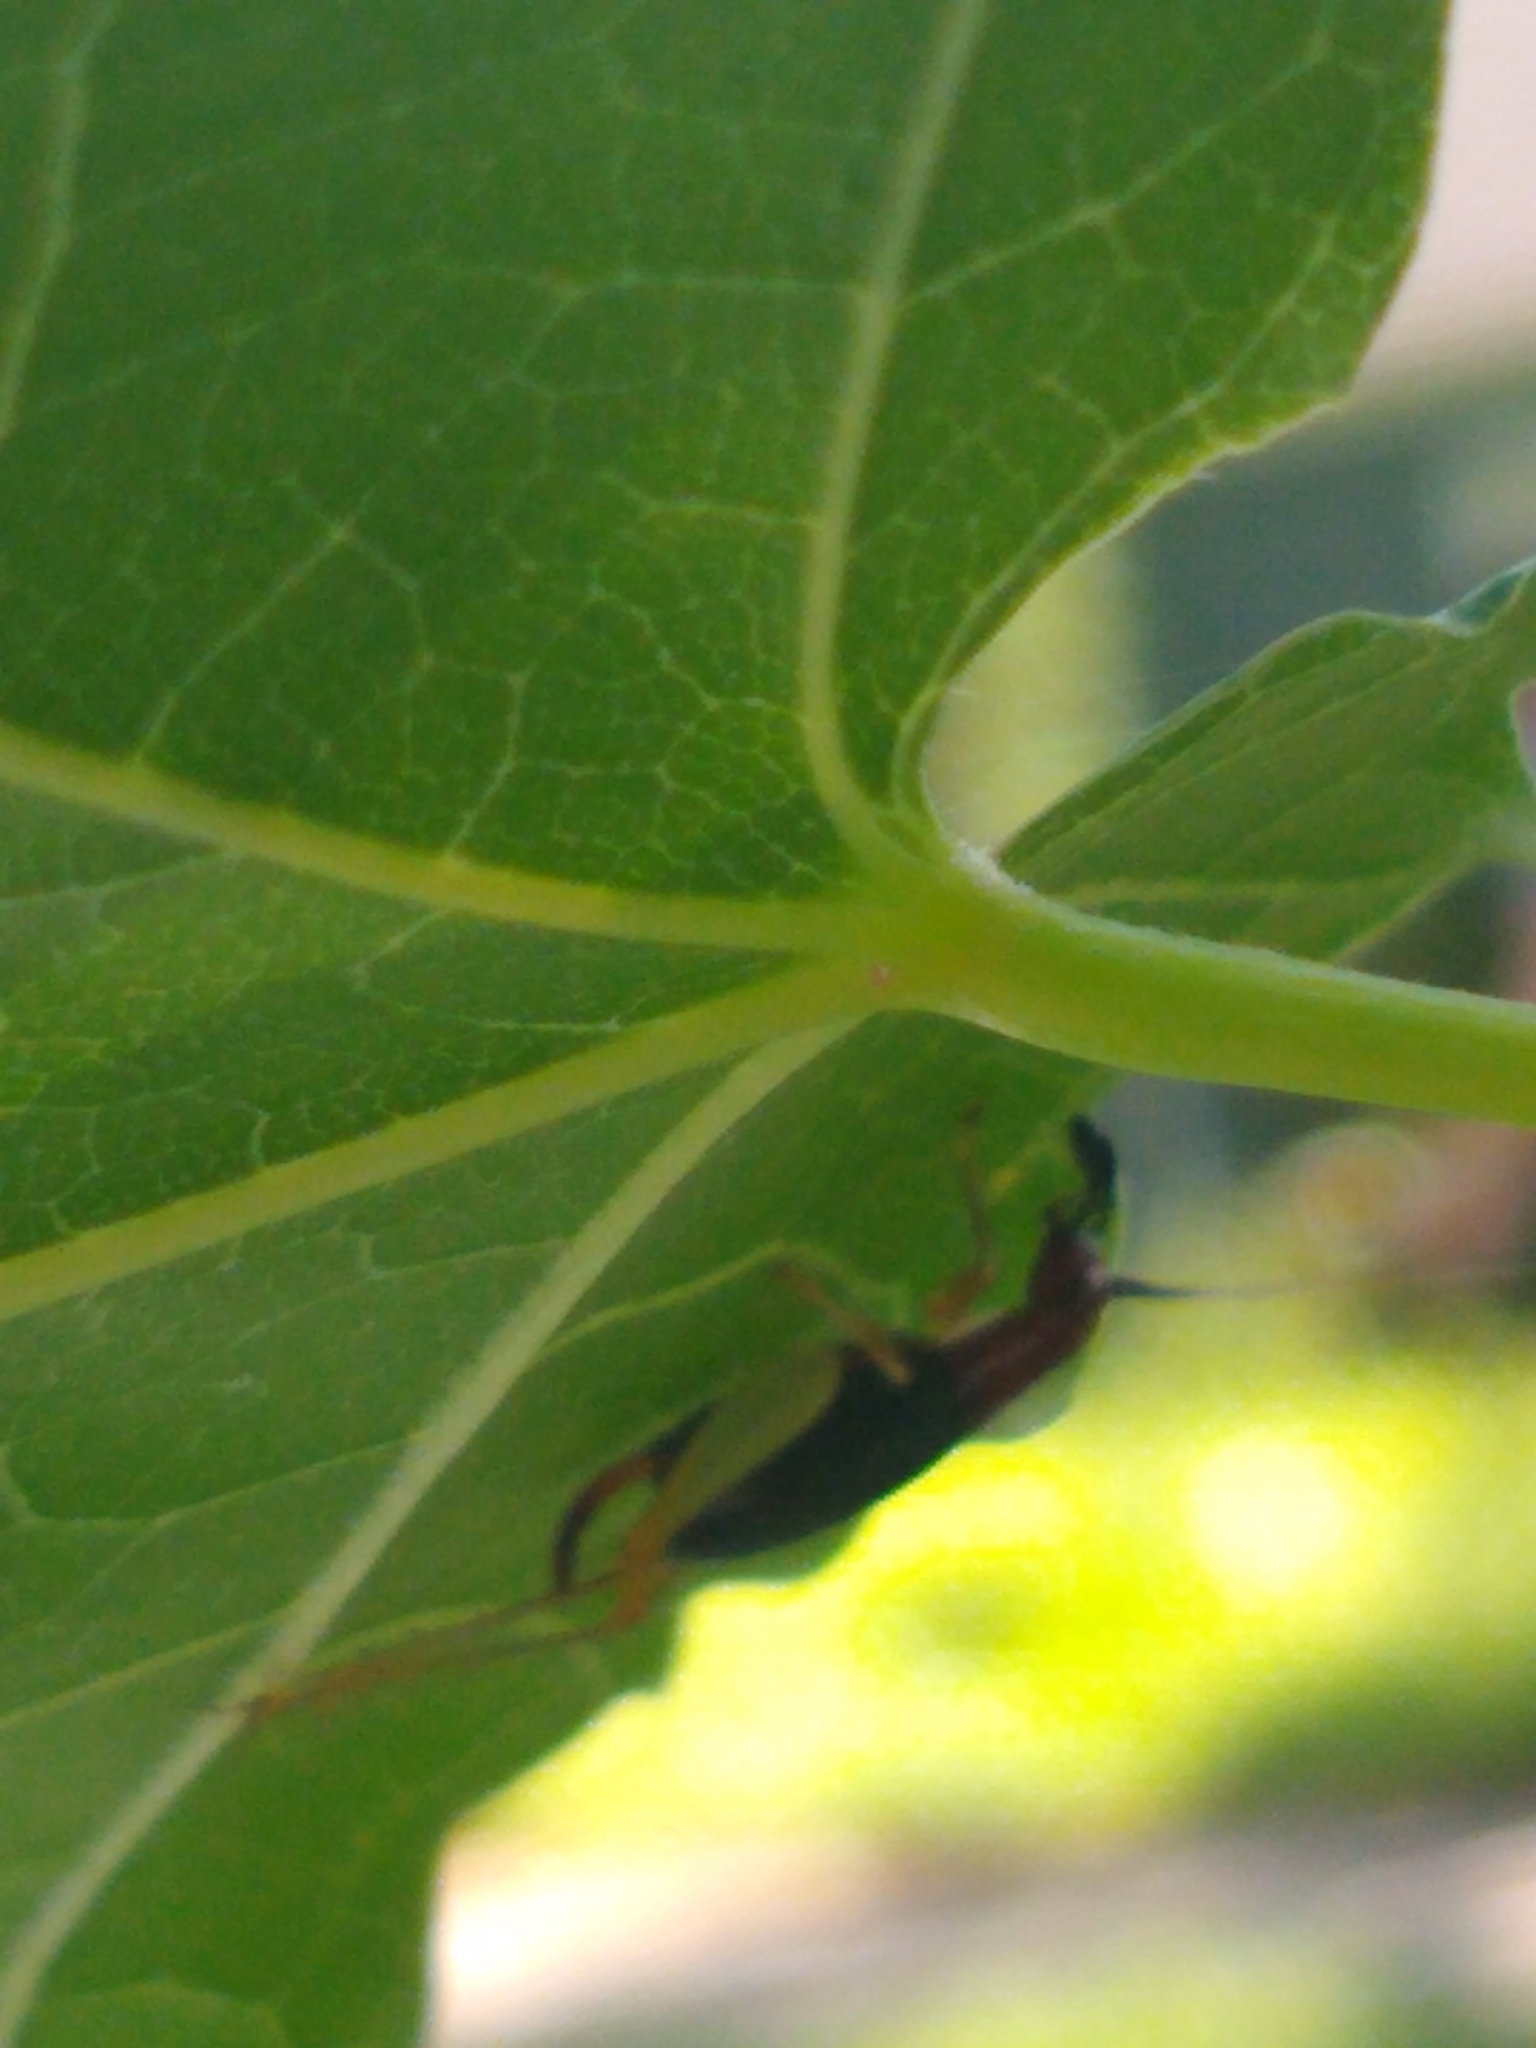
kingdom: Animalia
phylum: Arthropoda
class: Insecta
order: Orthoptera
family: Trigonidiidae
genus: Phyllopalpus
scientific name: Phyllopalpus pulchellus
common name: Handsome trig
